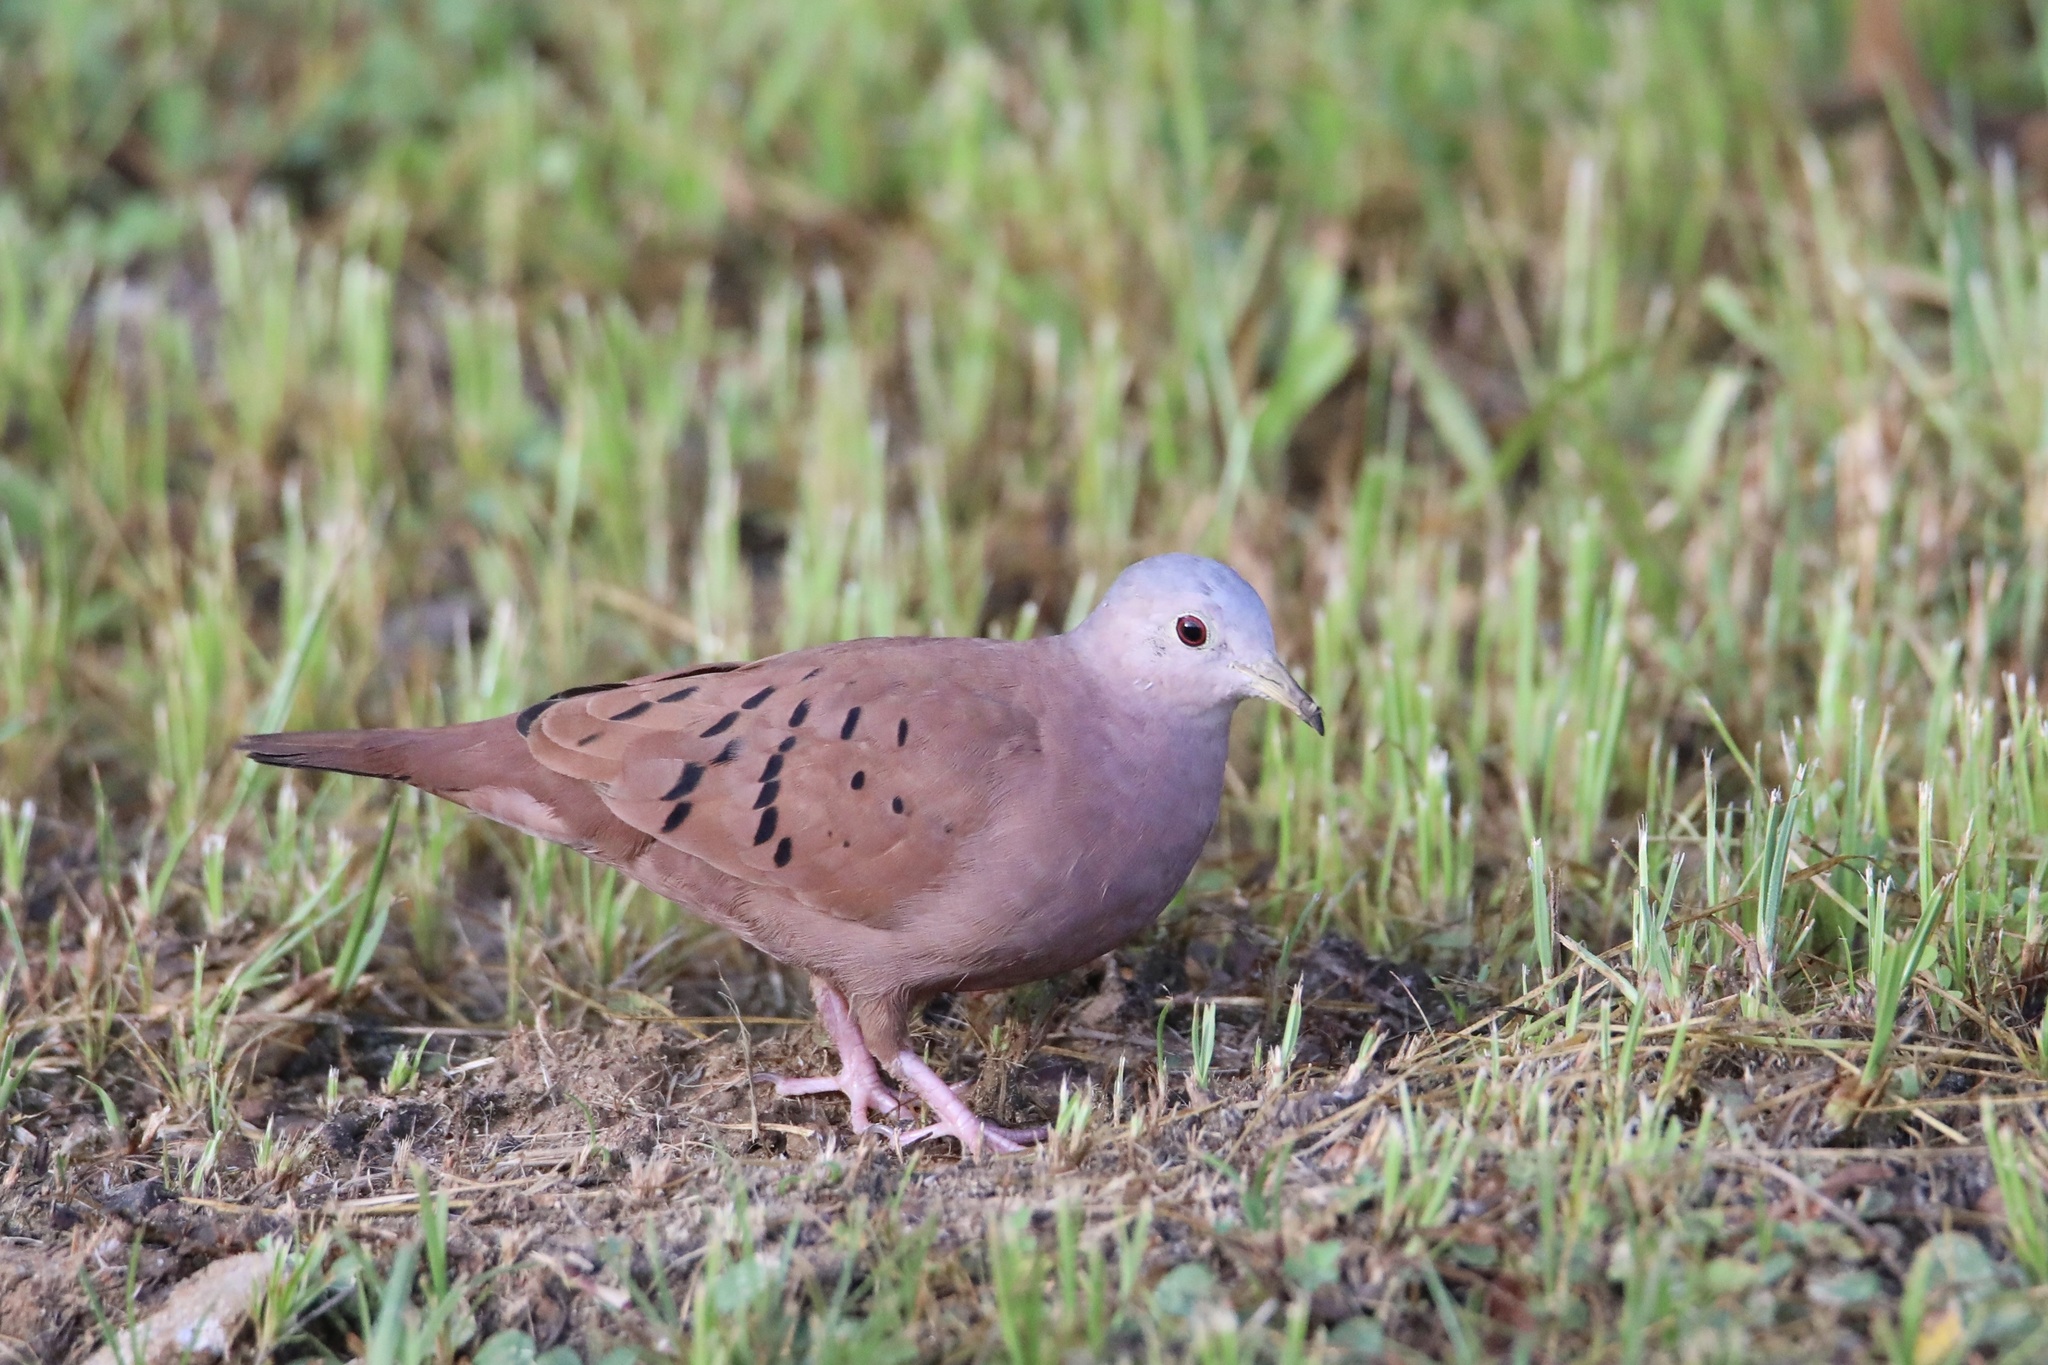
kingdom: Animalia
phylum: Chordata
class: Aves
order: Columbiformes
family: Columbidae
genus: Columbina
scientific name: Columbina talpacoti
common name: Ruddy ground dove
